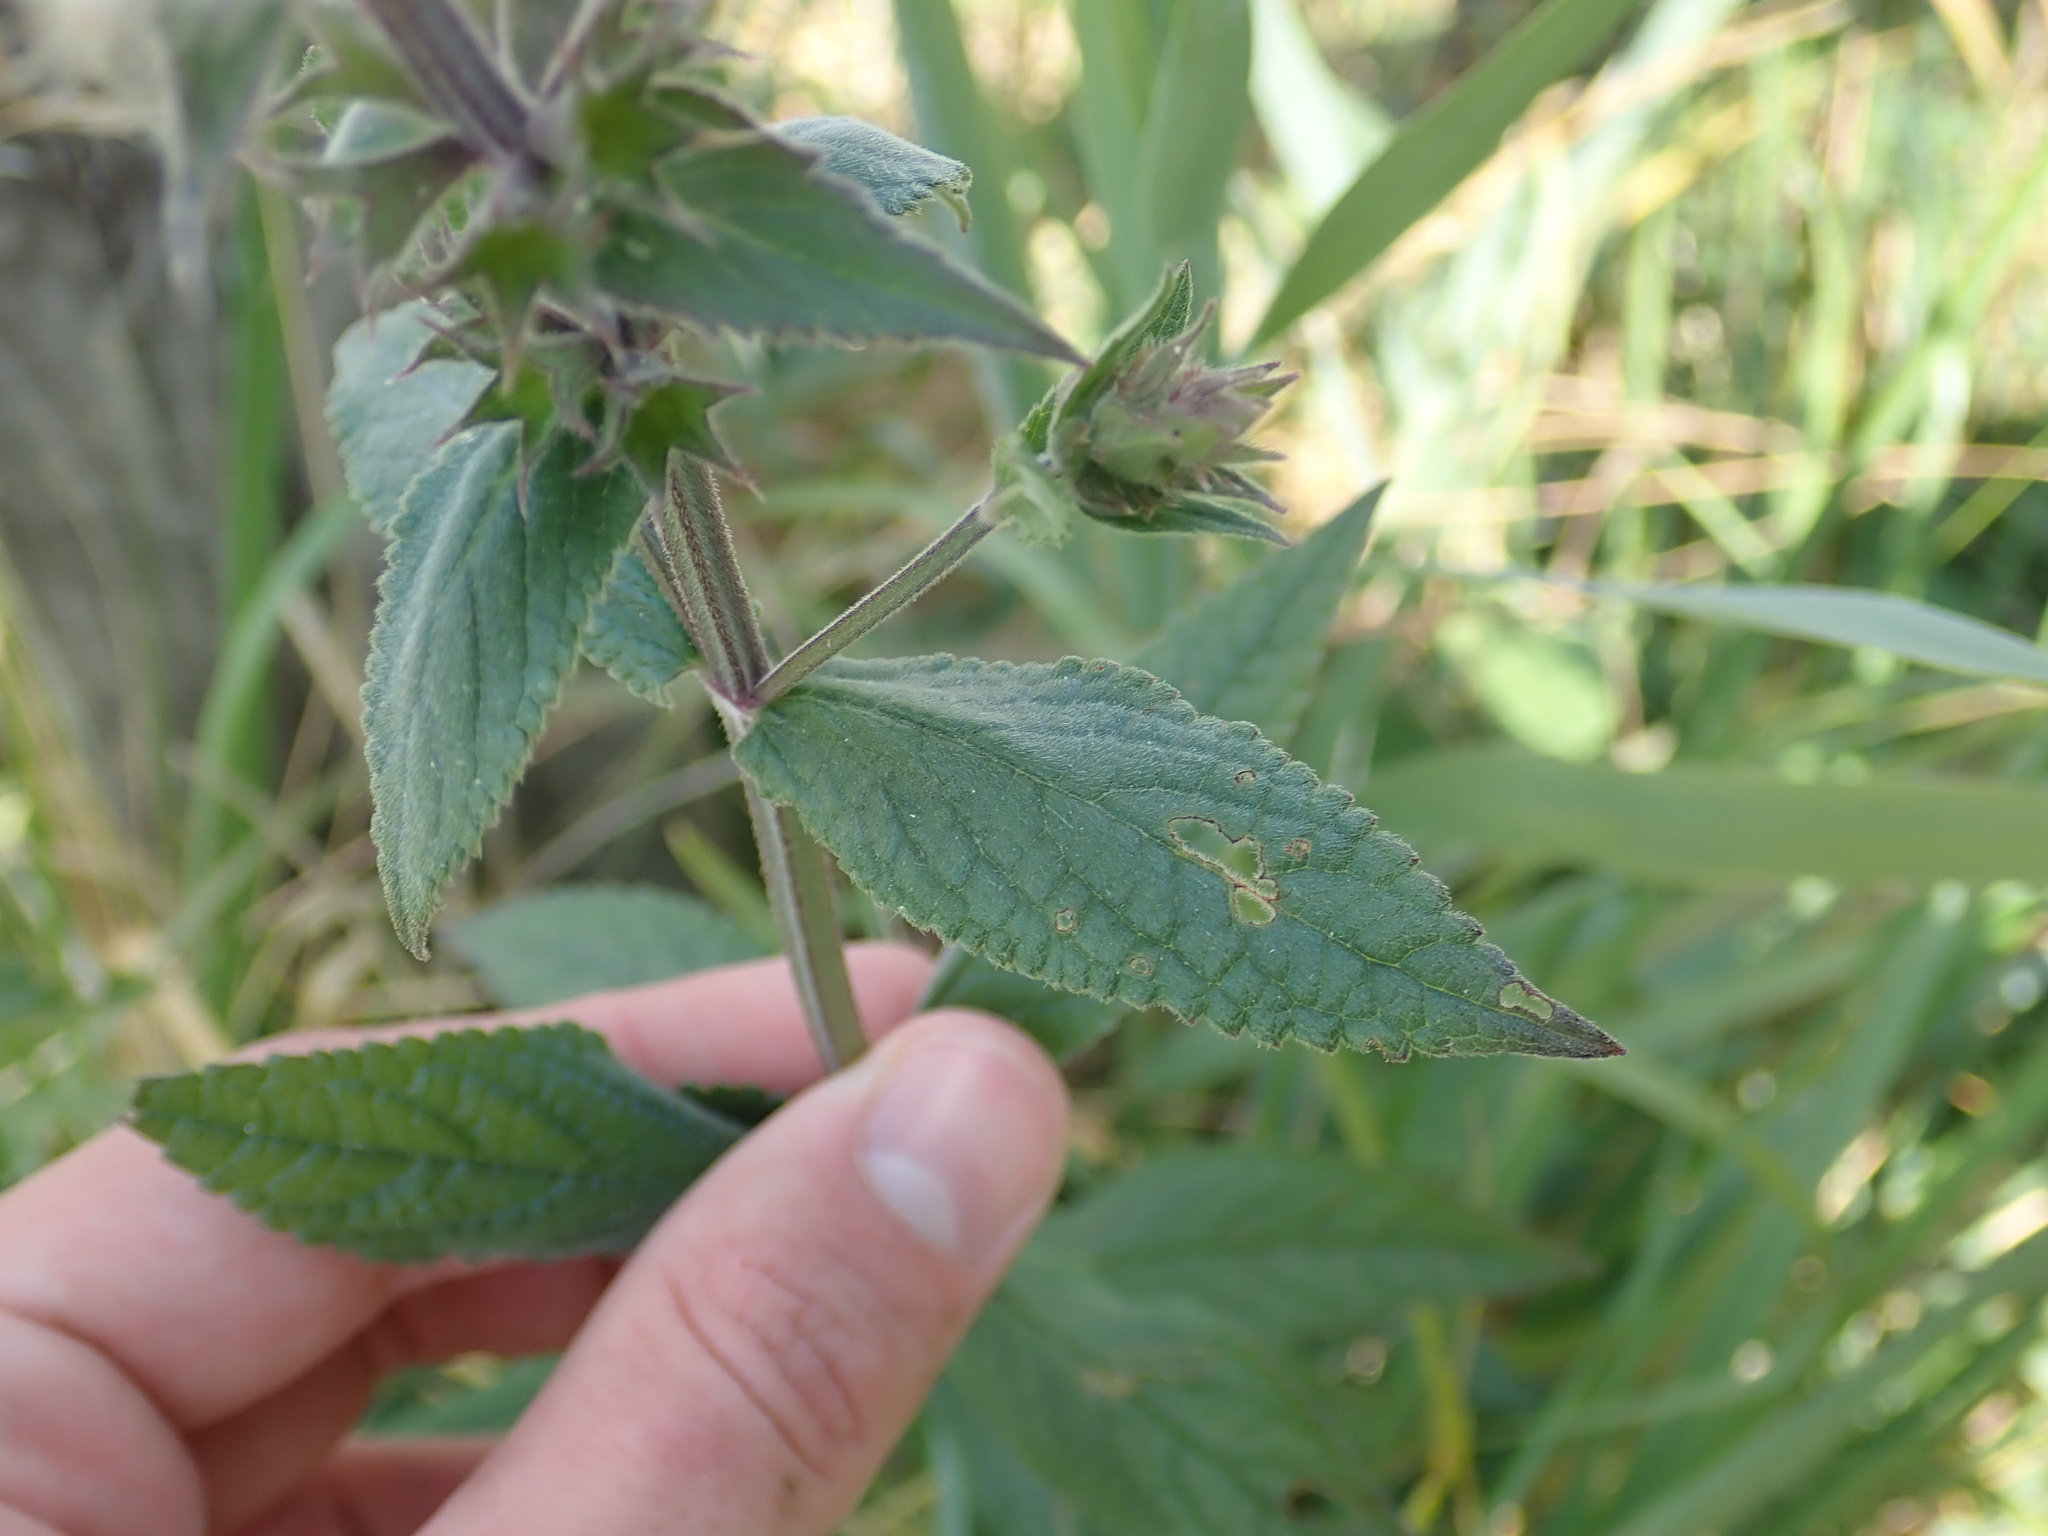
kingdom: Plantae
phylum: Tracheophyta
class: Magnoliopsida
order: Lamiales
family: Lamiaceae
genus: Stachys
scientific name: Stachys palustris
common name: Marsh woundwort
